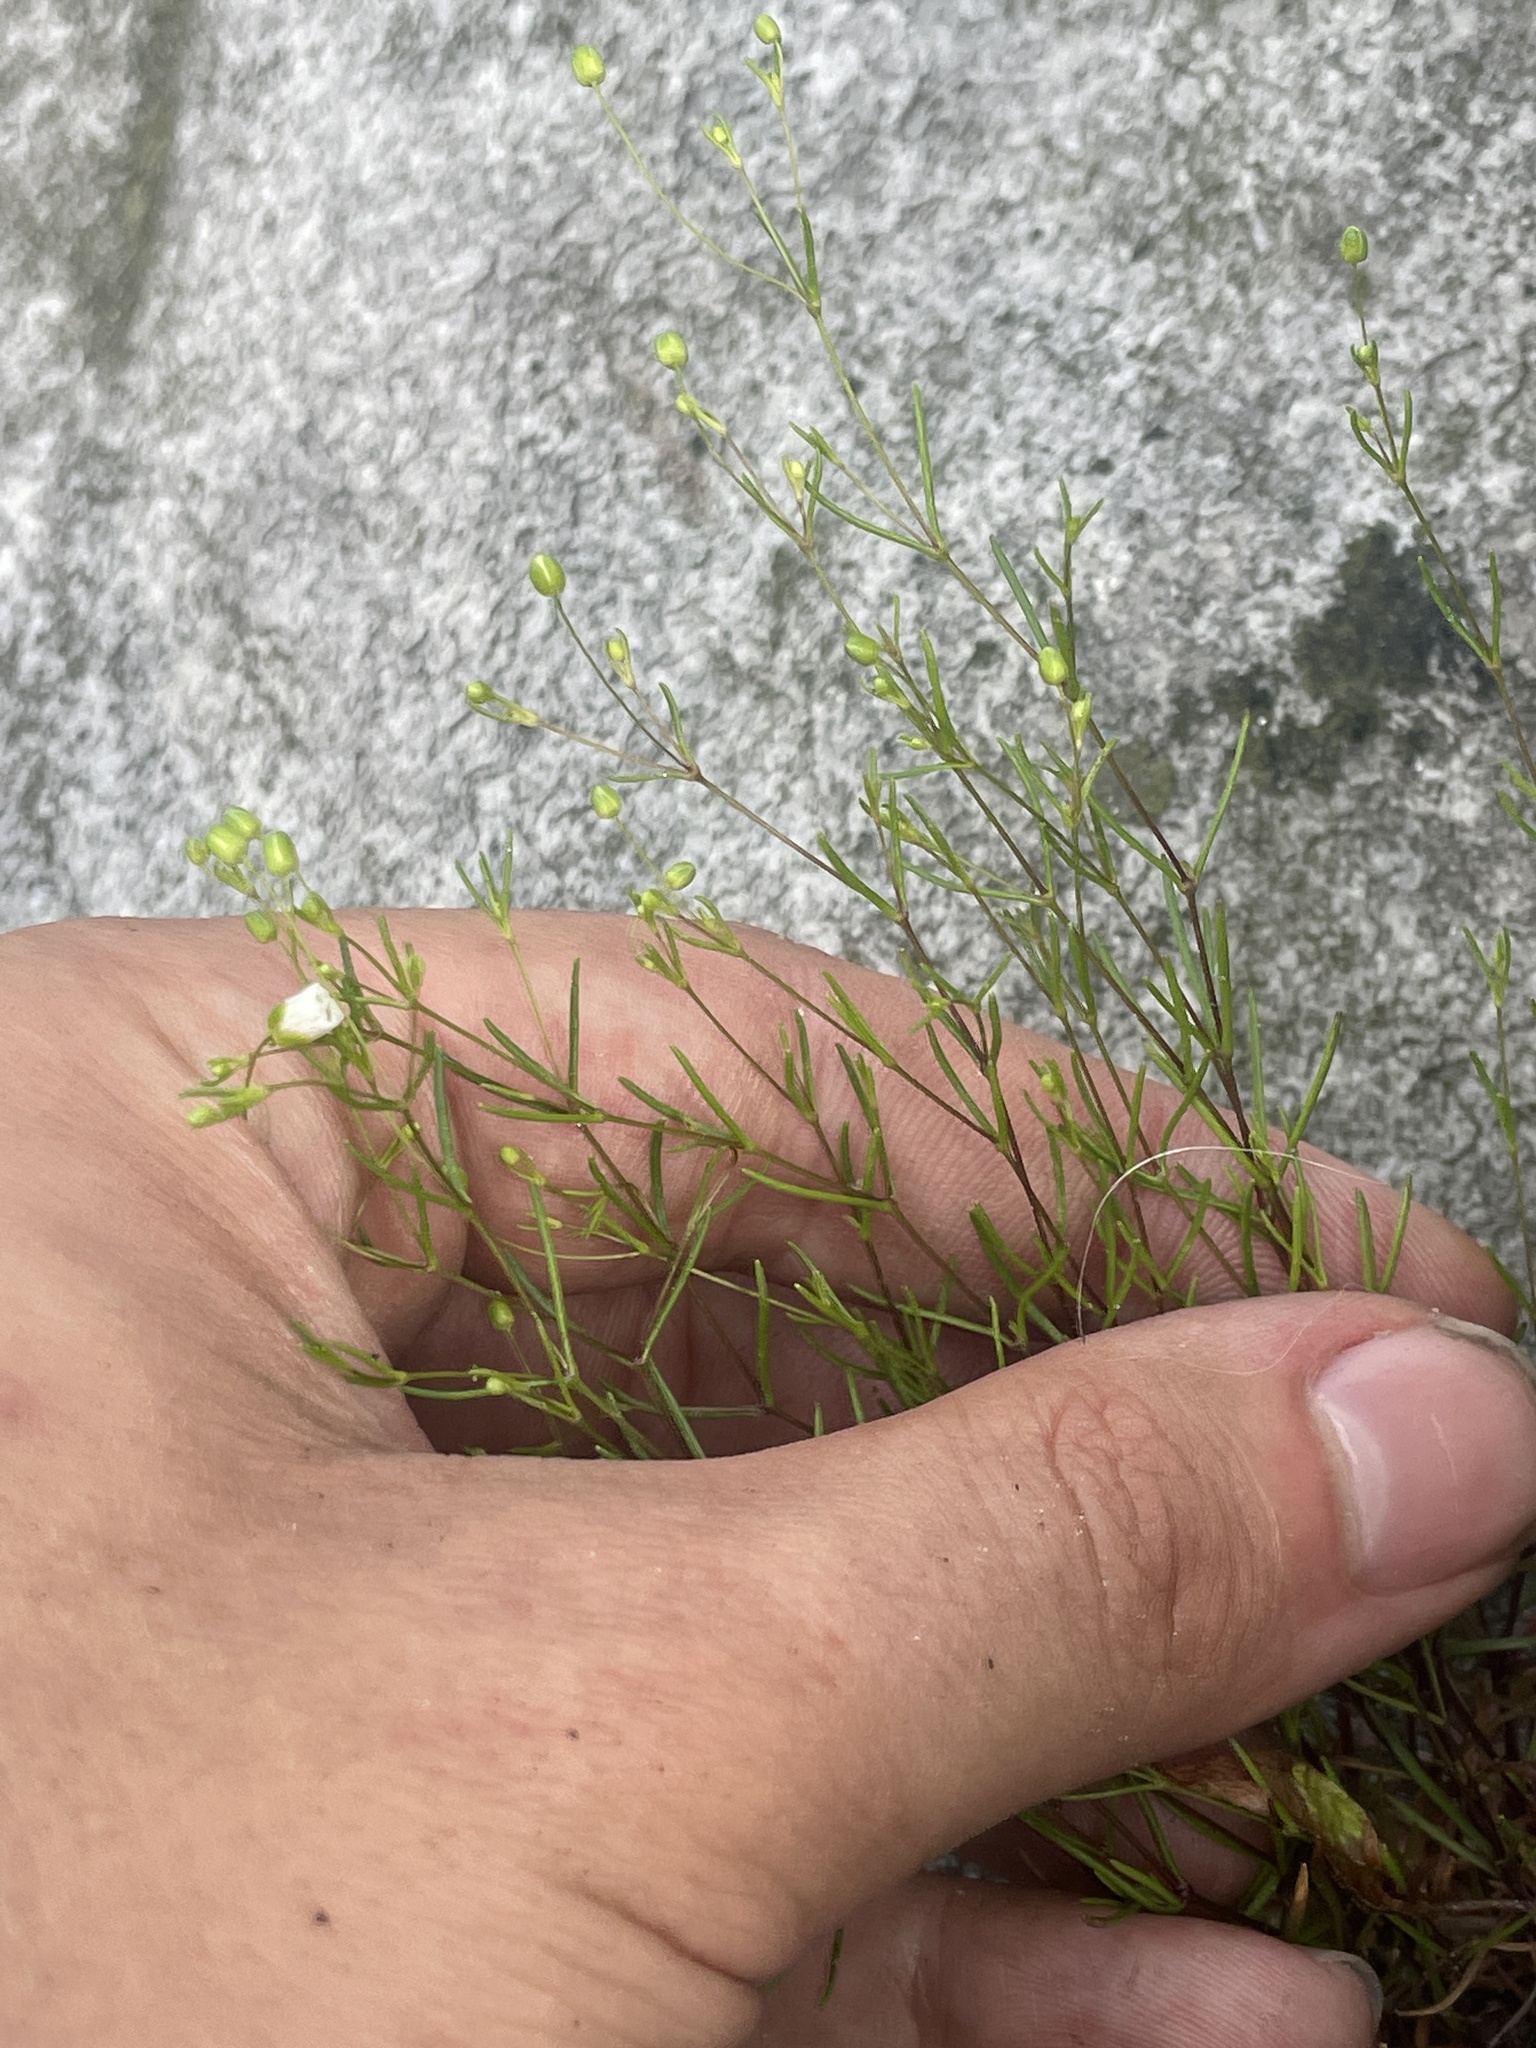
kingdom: Plantae
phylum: Tracheophyta
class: Magnoliopsida
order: Caryophyllales
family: Caryophyllaceae
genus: Geocarpon
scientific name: Geocarpon groenlandicum
